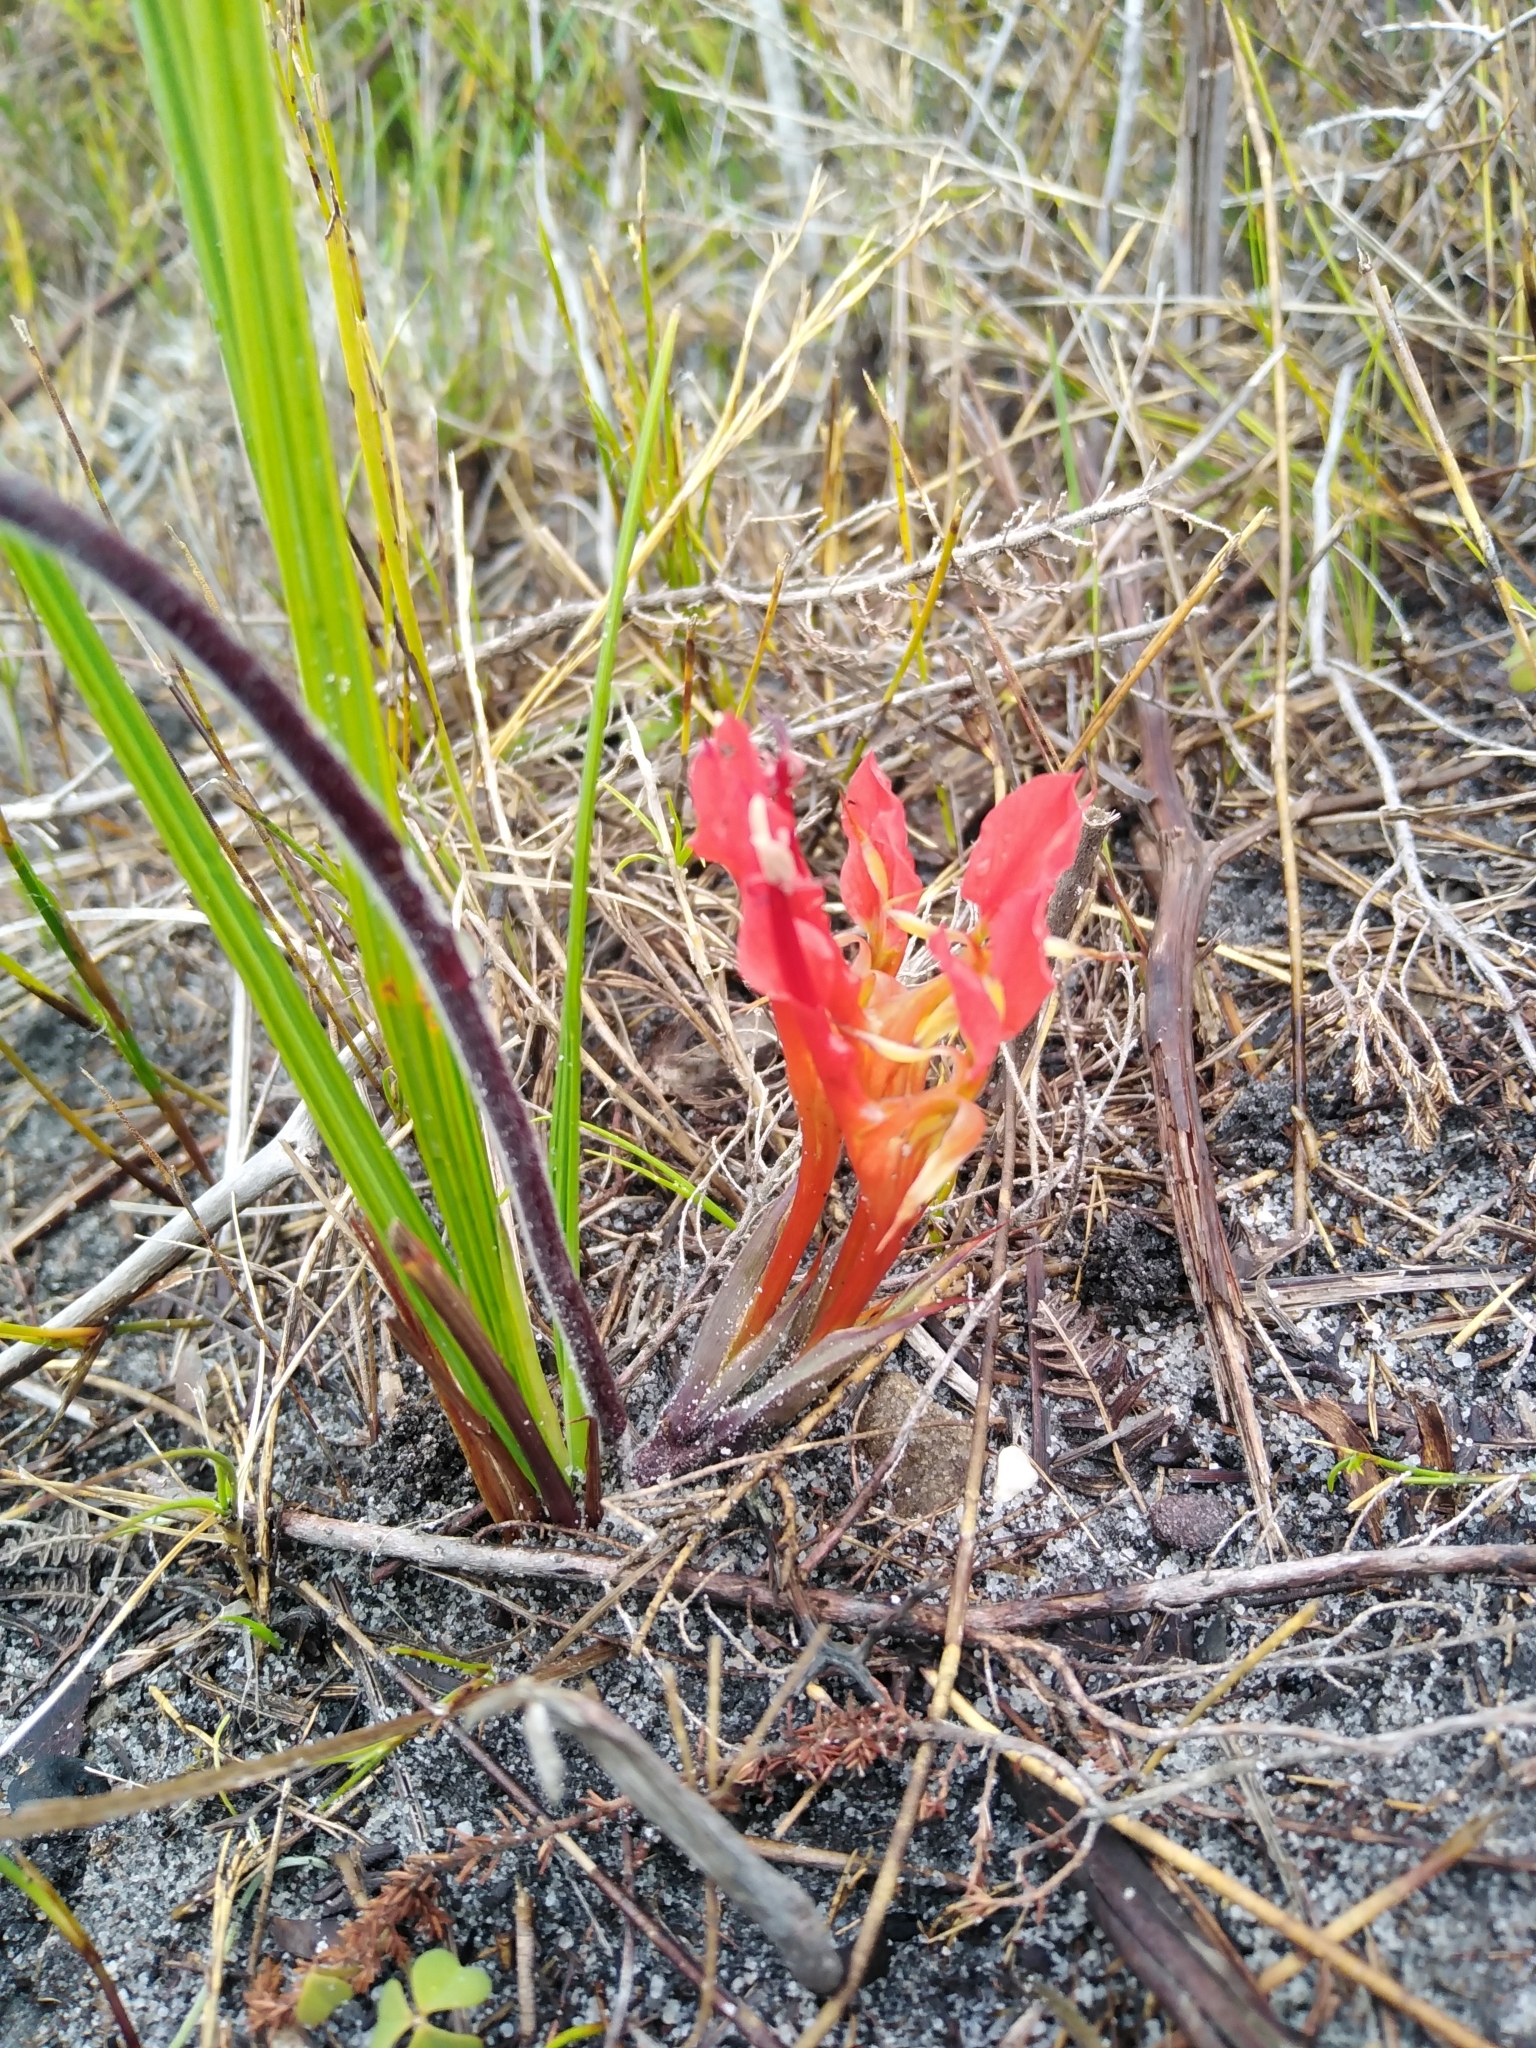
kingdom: Plantae
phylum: Tracheophyta
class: Liliopsida
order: Asparagales
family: Iridaceae
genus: Babiana
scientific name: Babiana ringens
